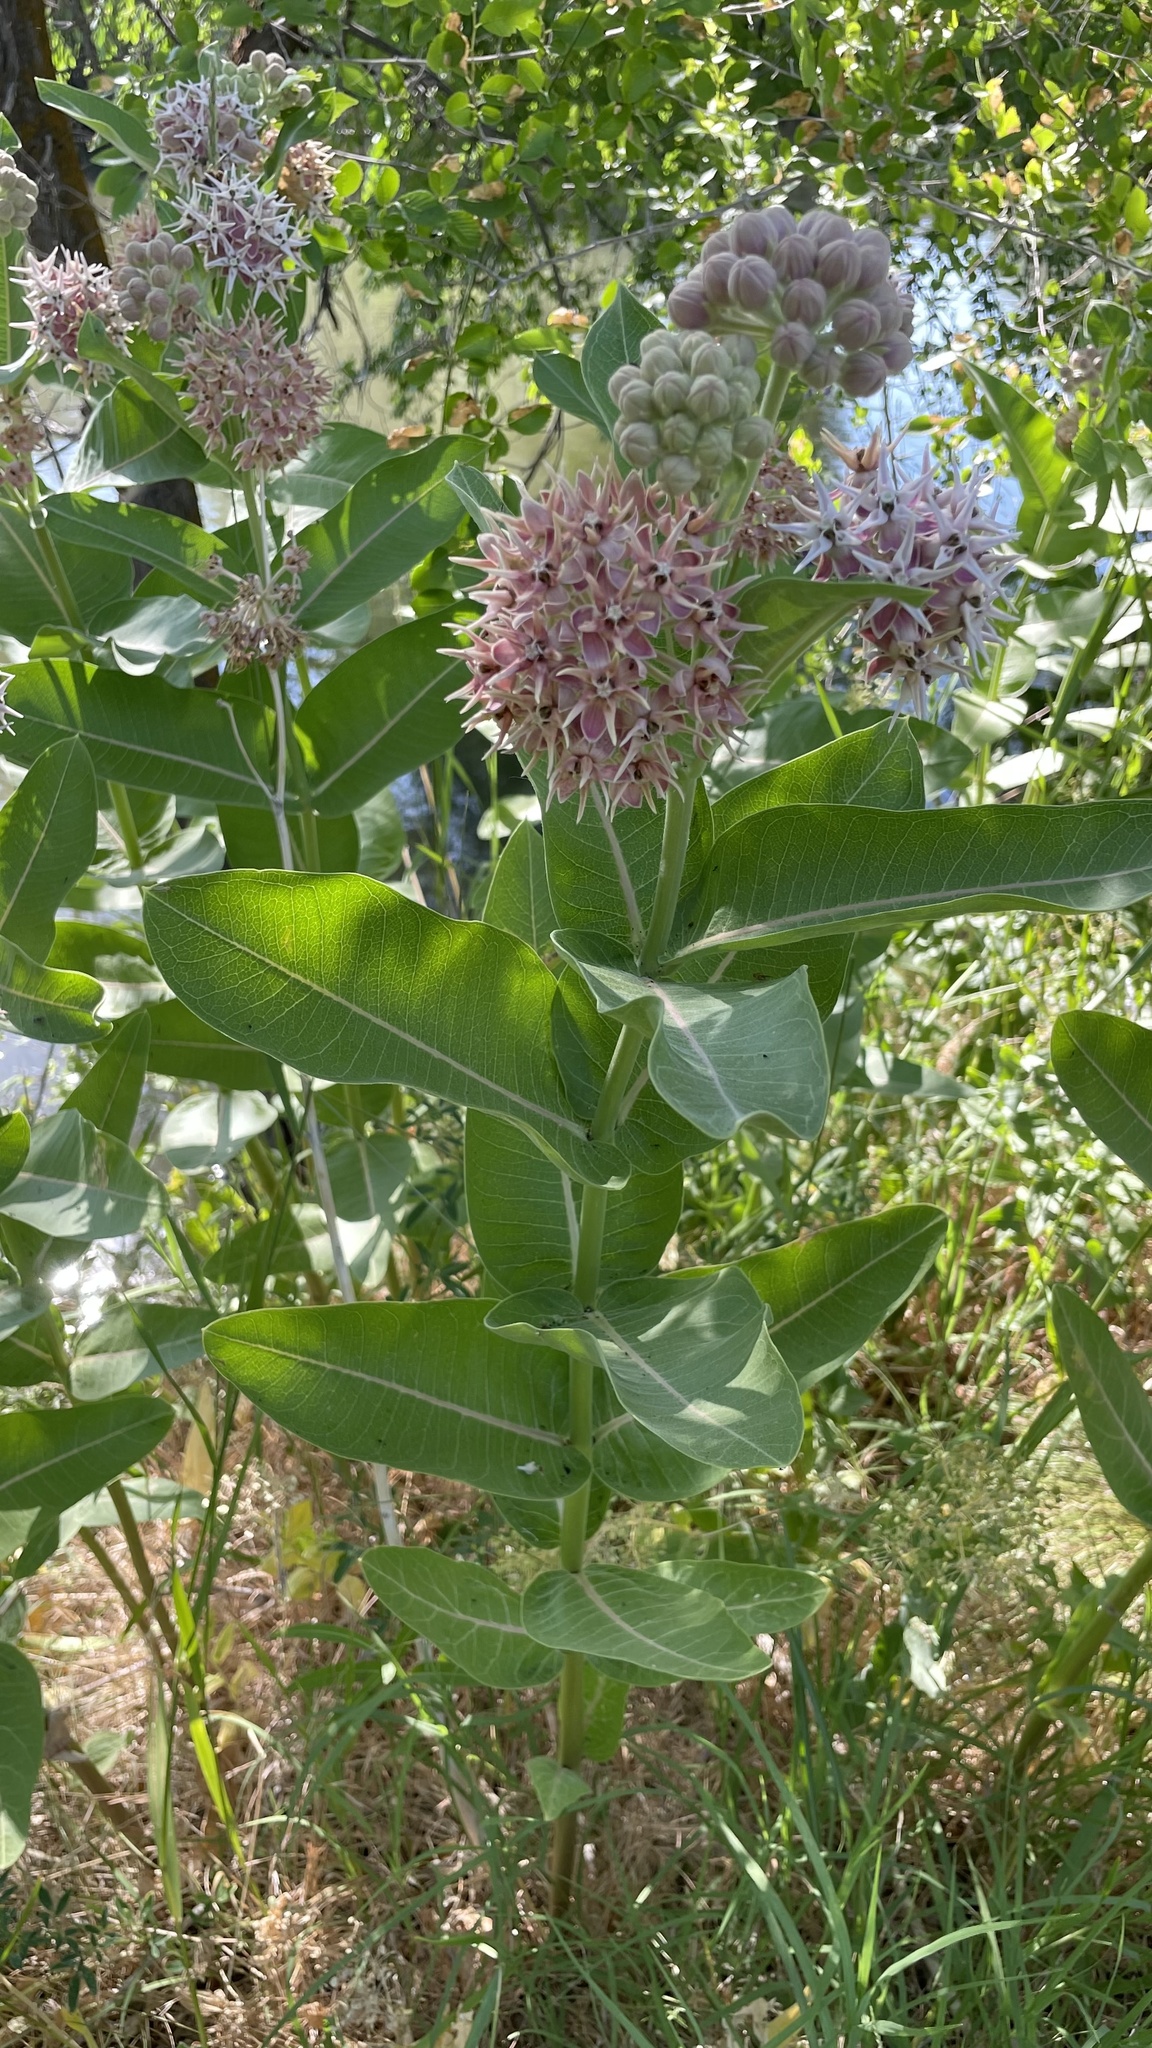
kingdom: Plantae
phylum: Tracheophyta
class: Magnoliopsida
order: Gentianales
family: Apocynaceae
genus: Asclepias
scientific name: Asclepias speciosa
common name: Showy milkweed
